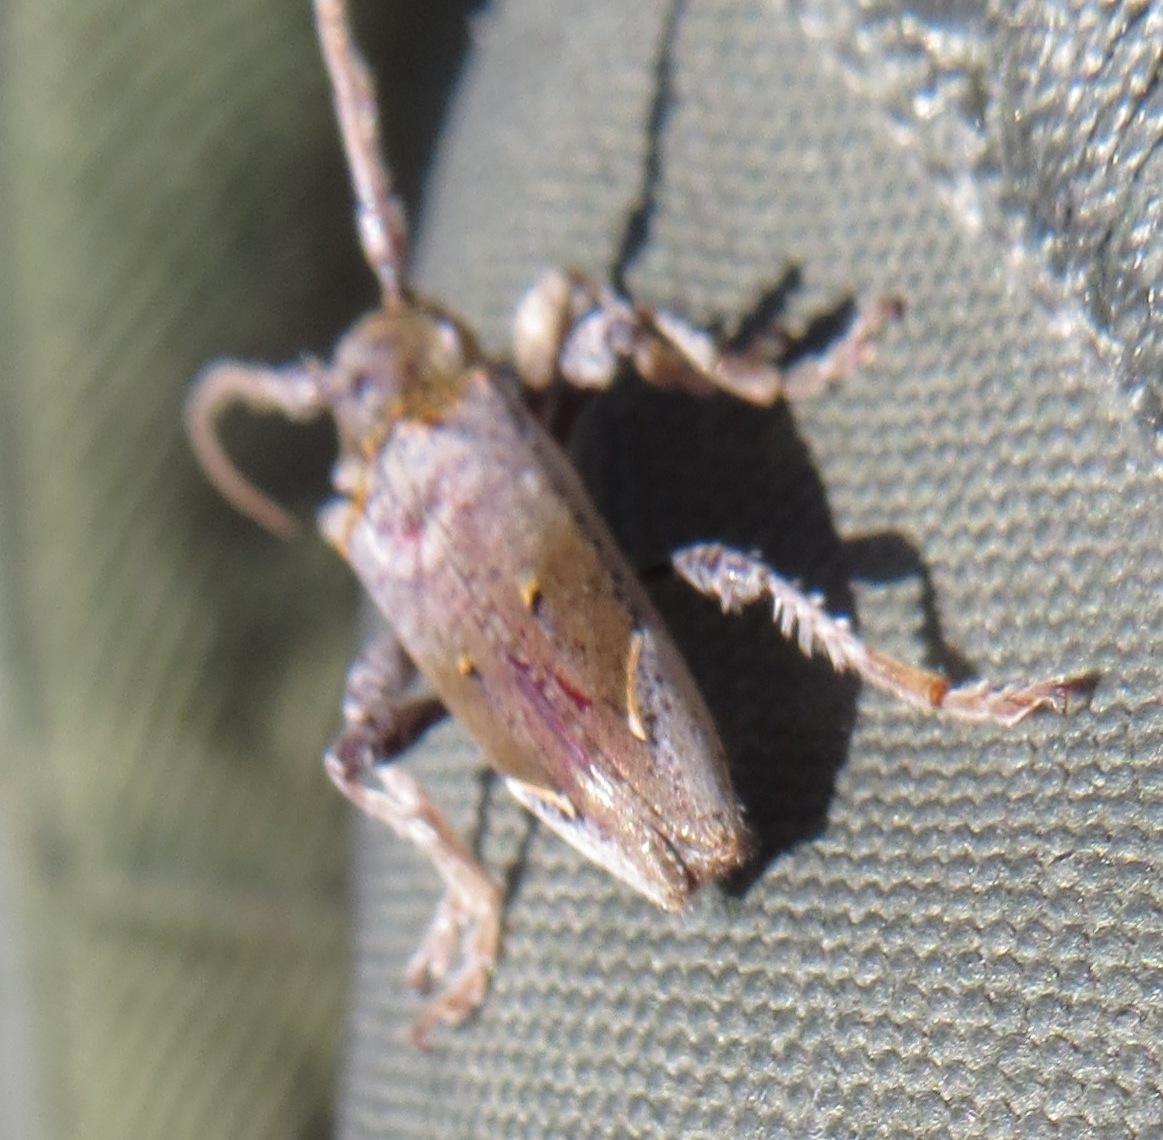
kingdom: Animalia
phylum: Arthropoda
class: Insecta
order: Coleoptera
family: Cerambycidae
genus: Tetrorea
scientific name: Tetrorea cilipes
